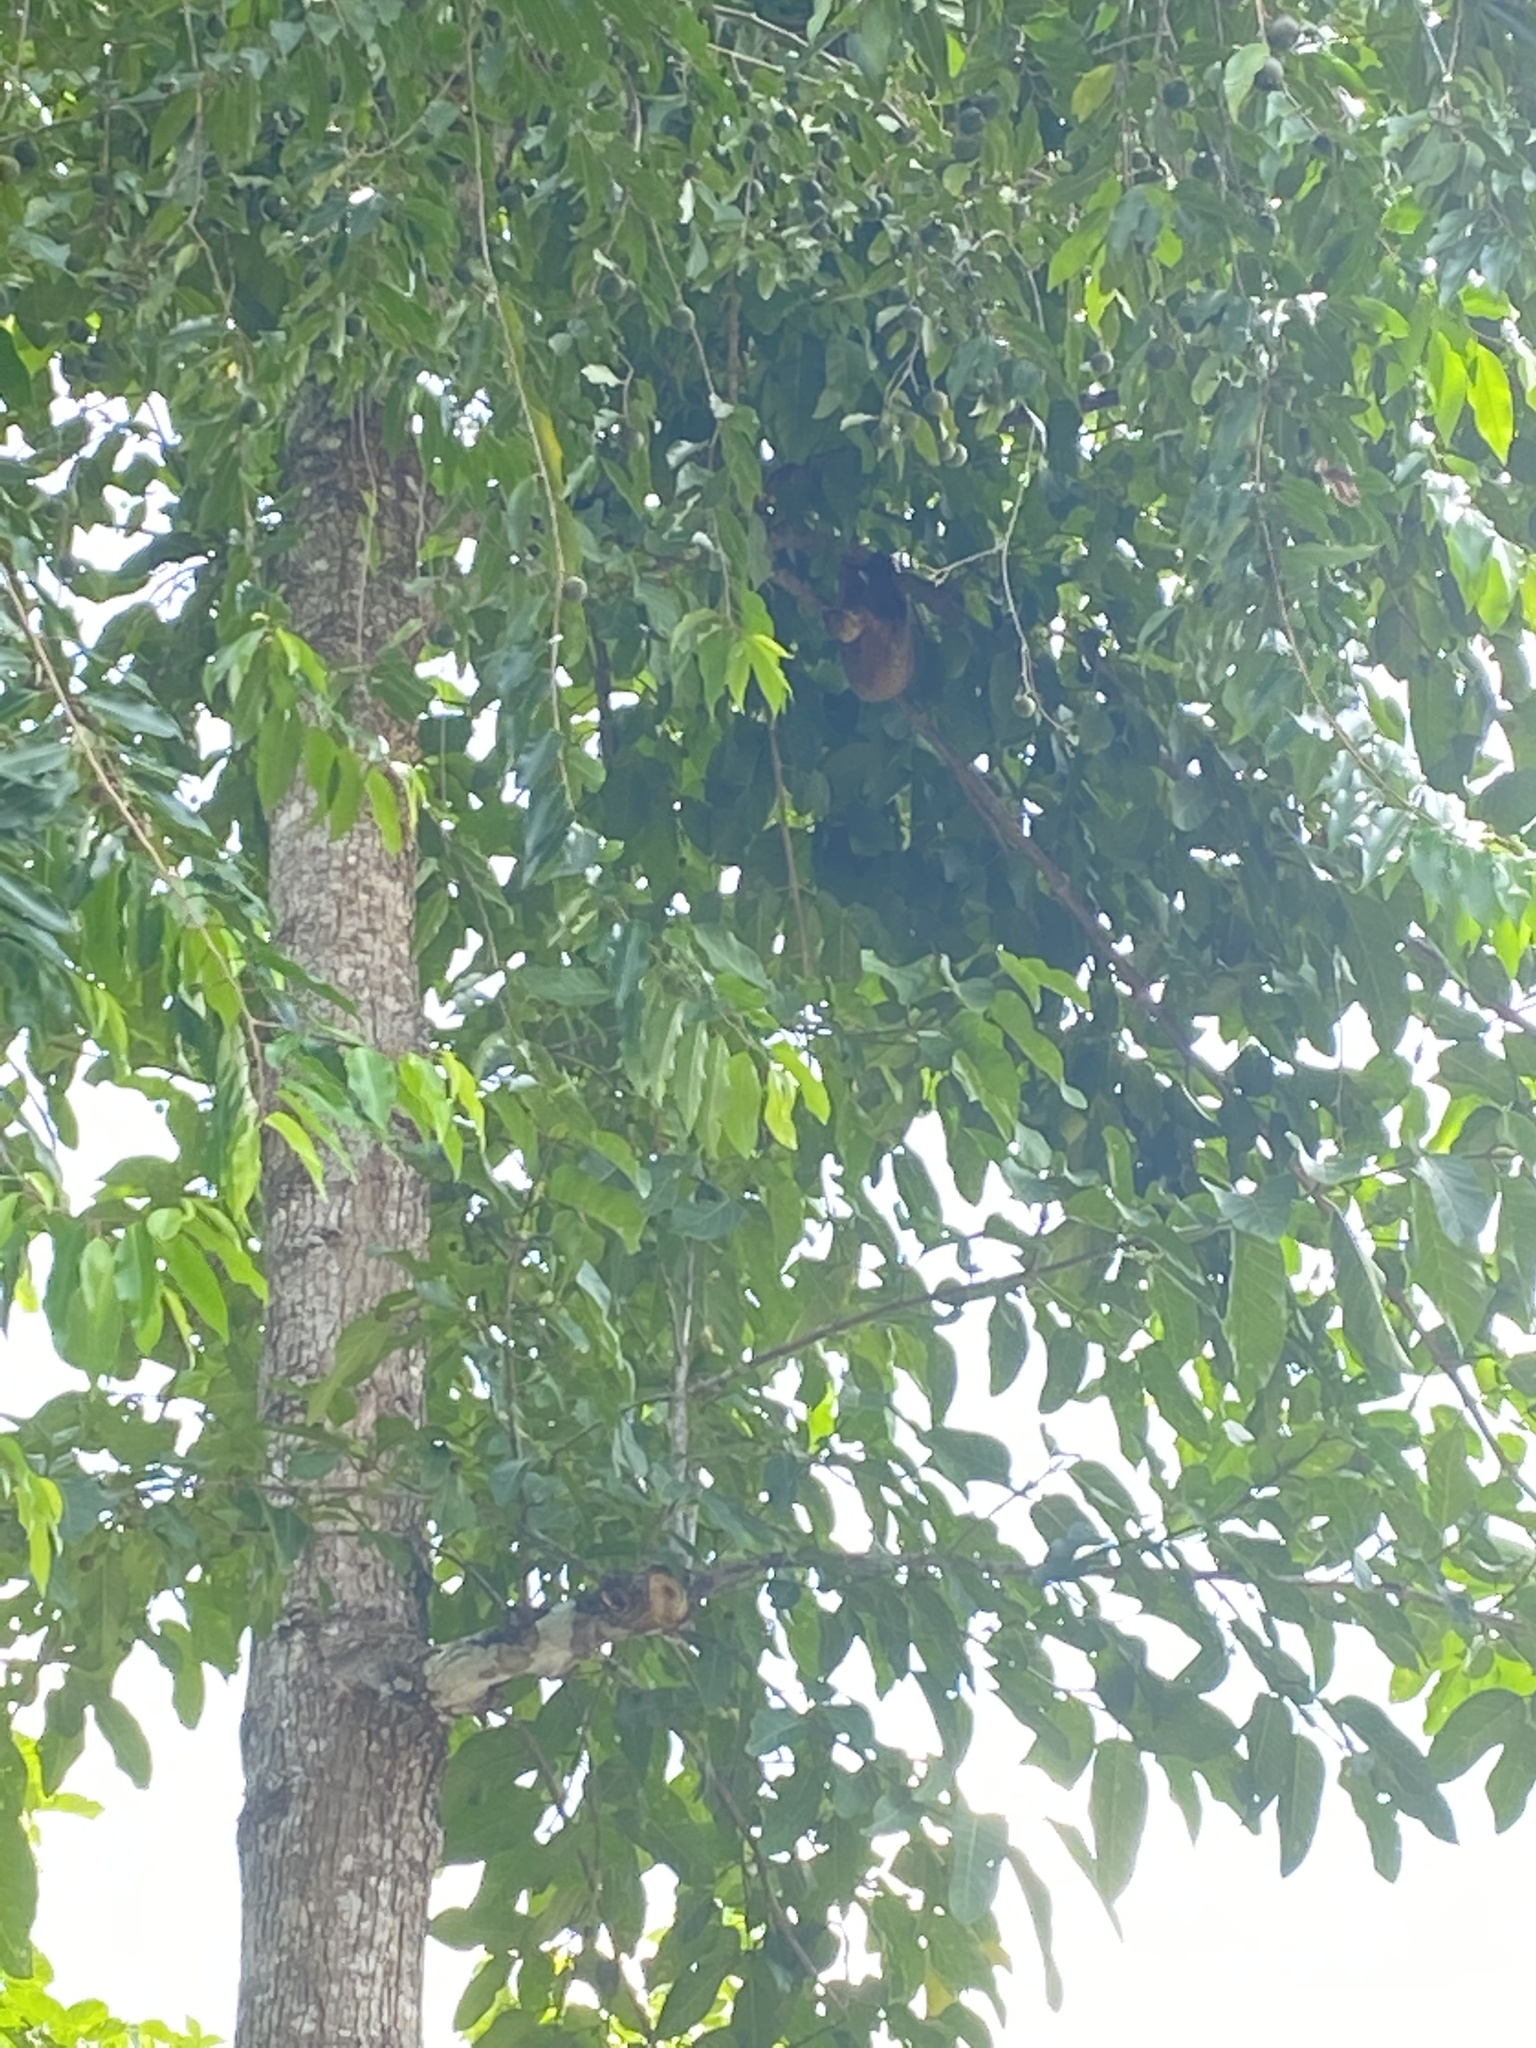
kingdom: Animalia
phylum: Chordata
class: Mammalia
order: Dermoptera
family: Cynocephalidae
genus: Galeopterus
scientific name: Galeopterus variegatus
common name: Sunda flying lemur
